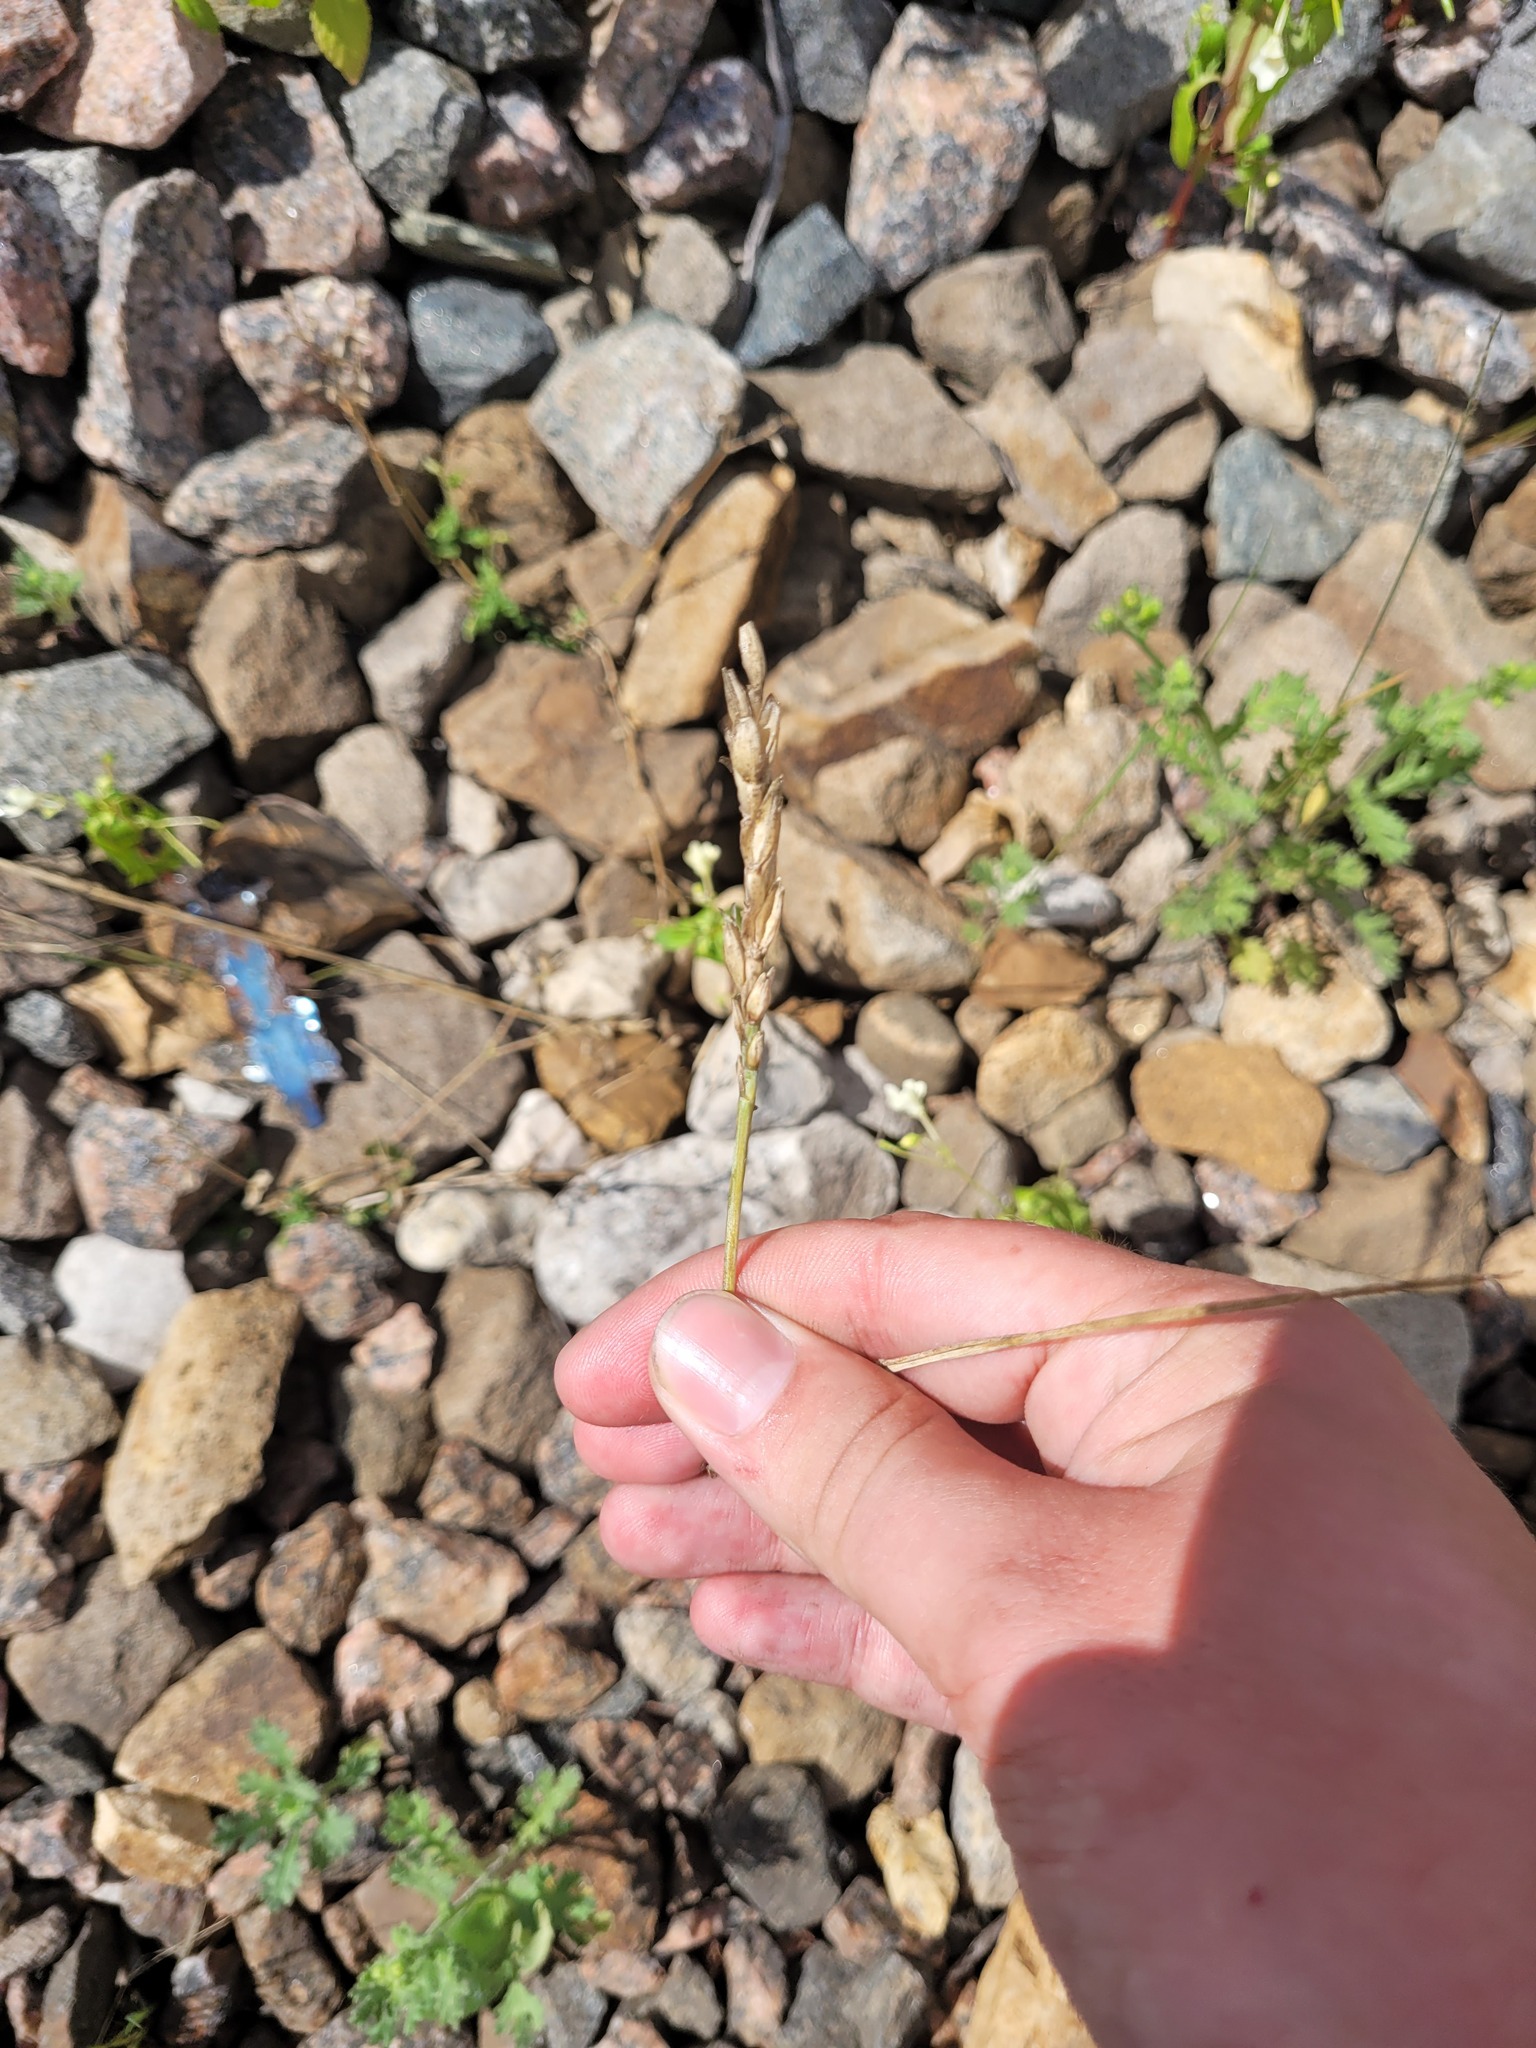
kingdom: Plantae
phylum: Tracheophyta
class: Liliopsida
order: Poales
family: Poaceae
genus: Triticum
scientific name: Triticum aestivum
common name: Common wheat
